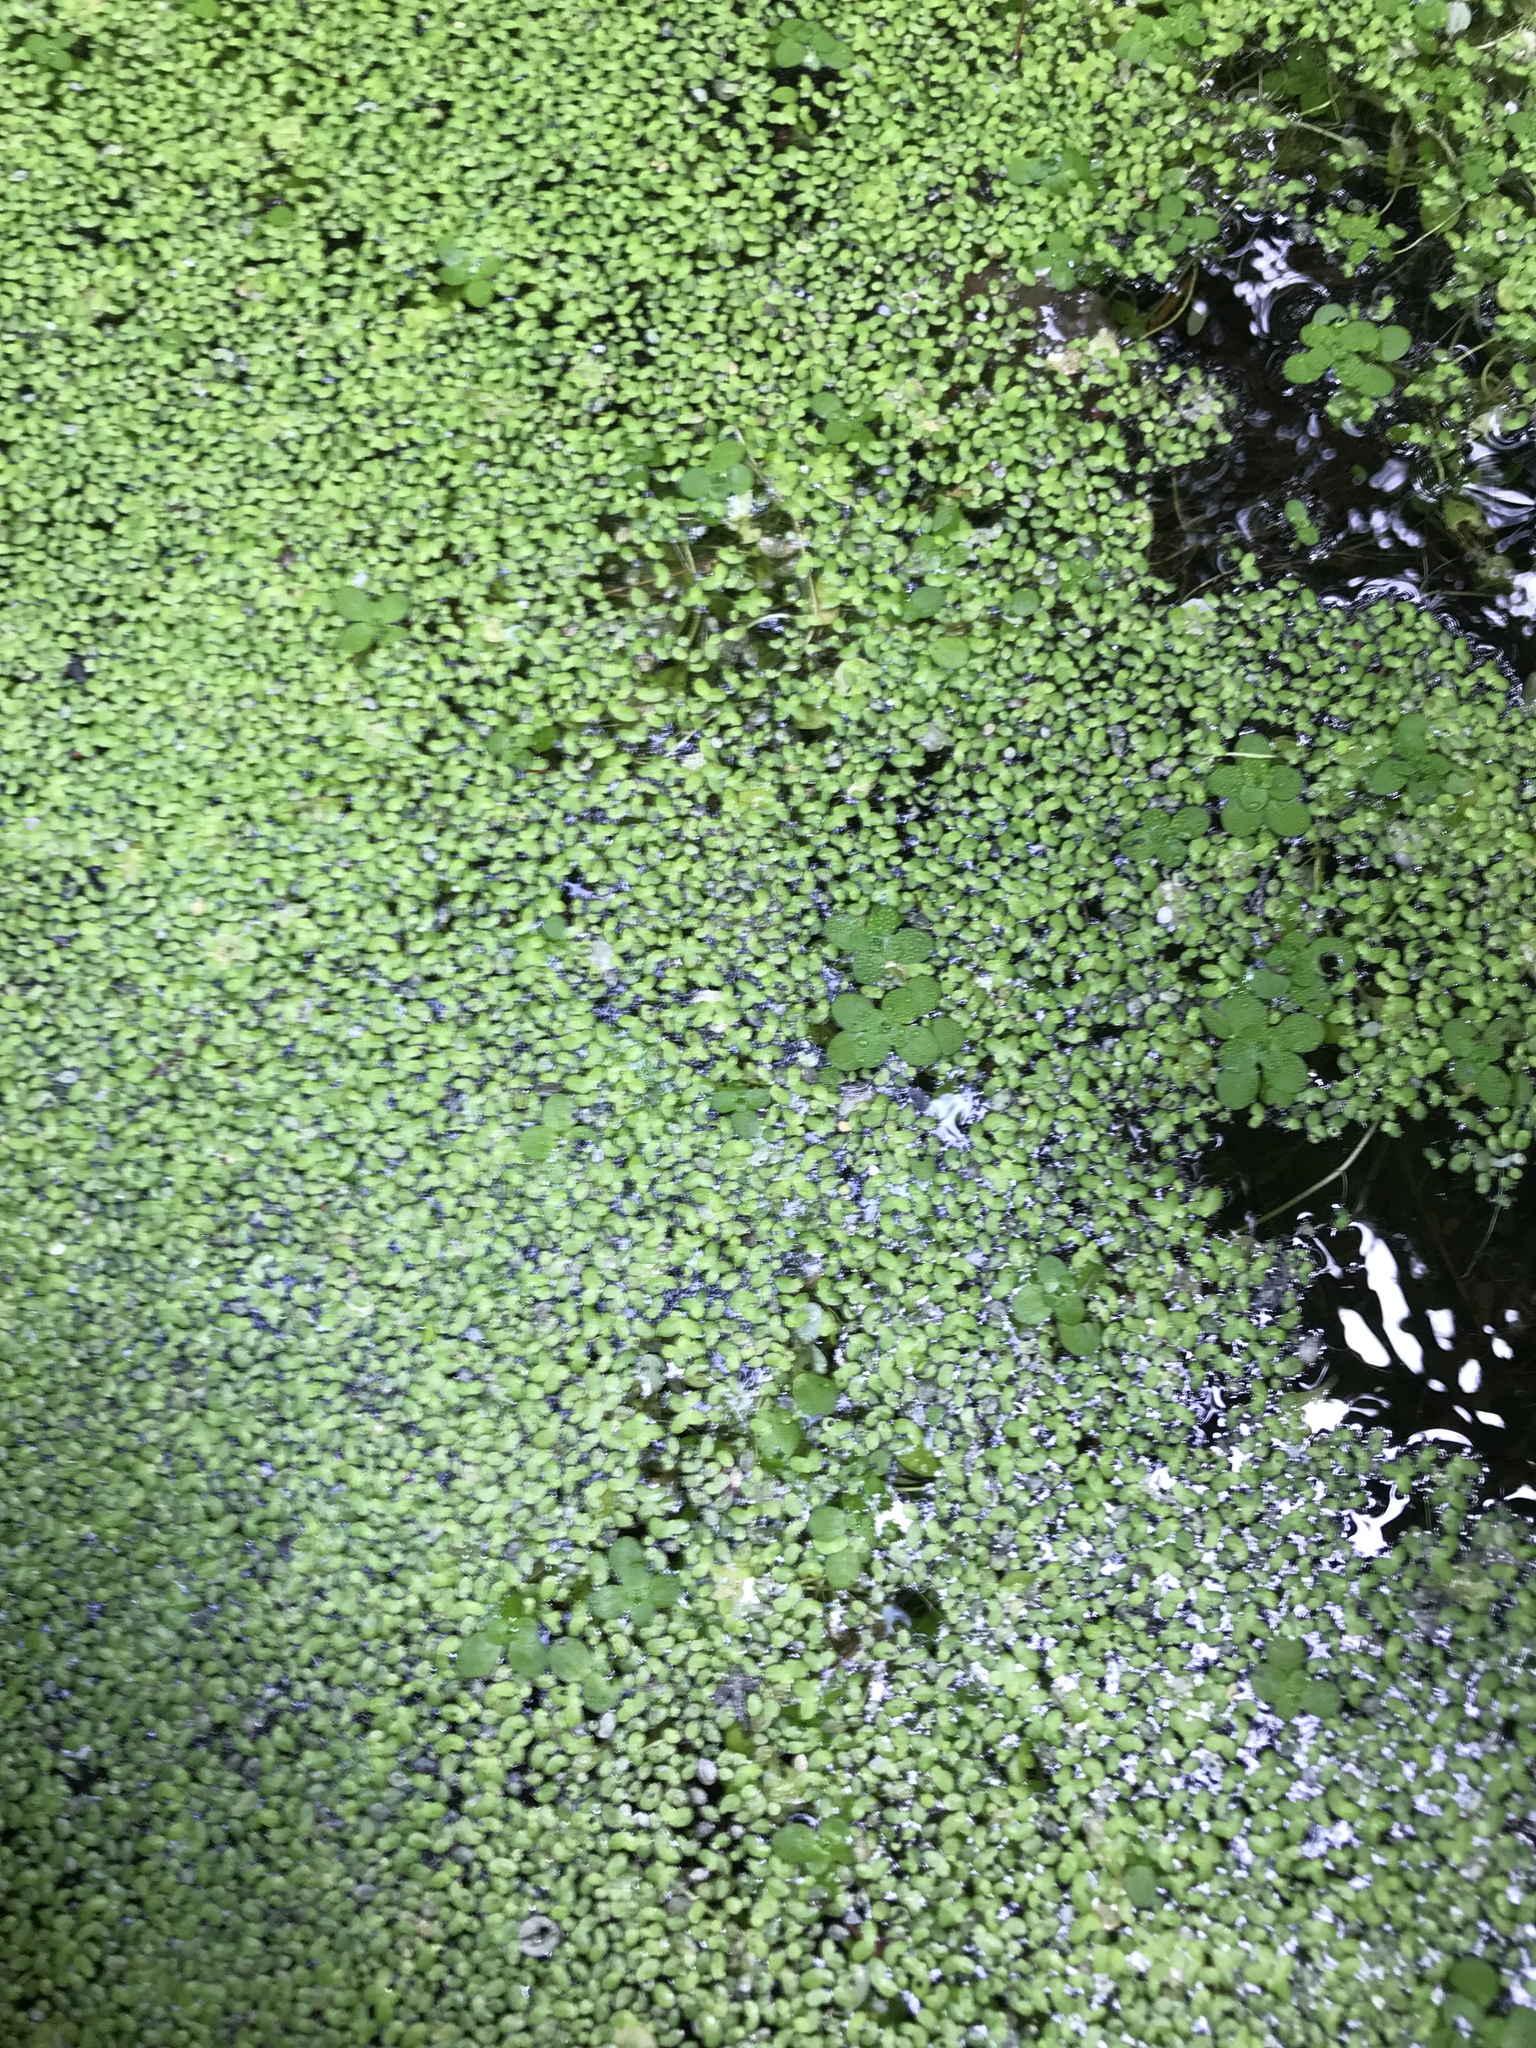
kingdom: Plantae
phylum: Tracheophyta
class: Liliopsida
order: Alismatales
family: Araceae
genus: Lemna
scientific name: Lemna minor
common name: Common duckweed
